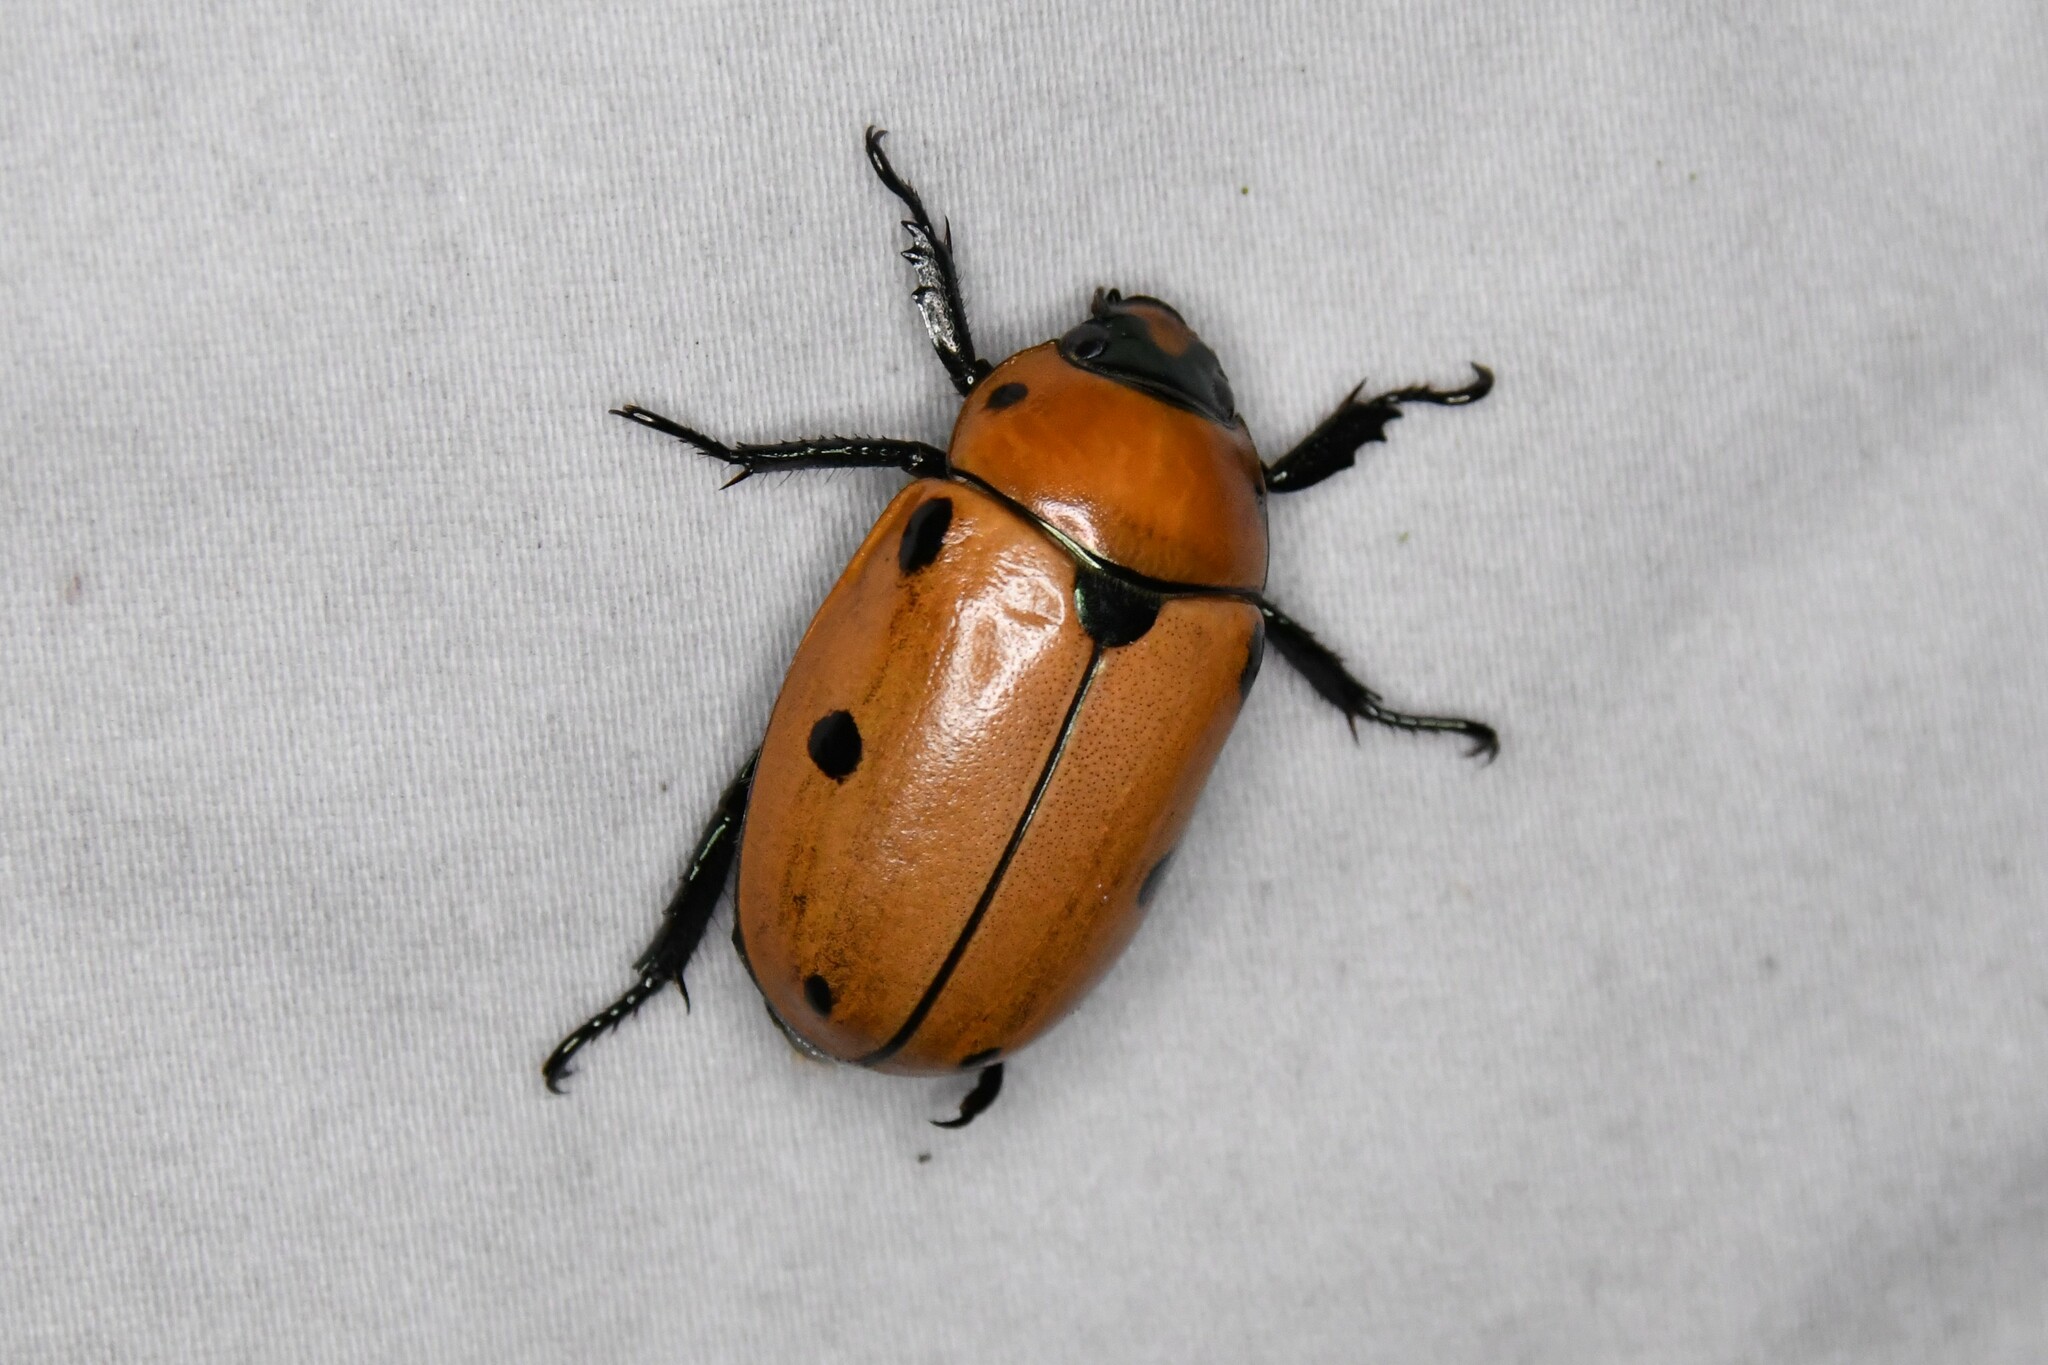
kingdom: Animalia
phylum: Arthropoda
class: Insecta
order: Coleoptera
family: Scarabaeidae
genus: Pelidnota
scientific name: Pelidnota punctata
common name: Grapevine beetle
